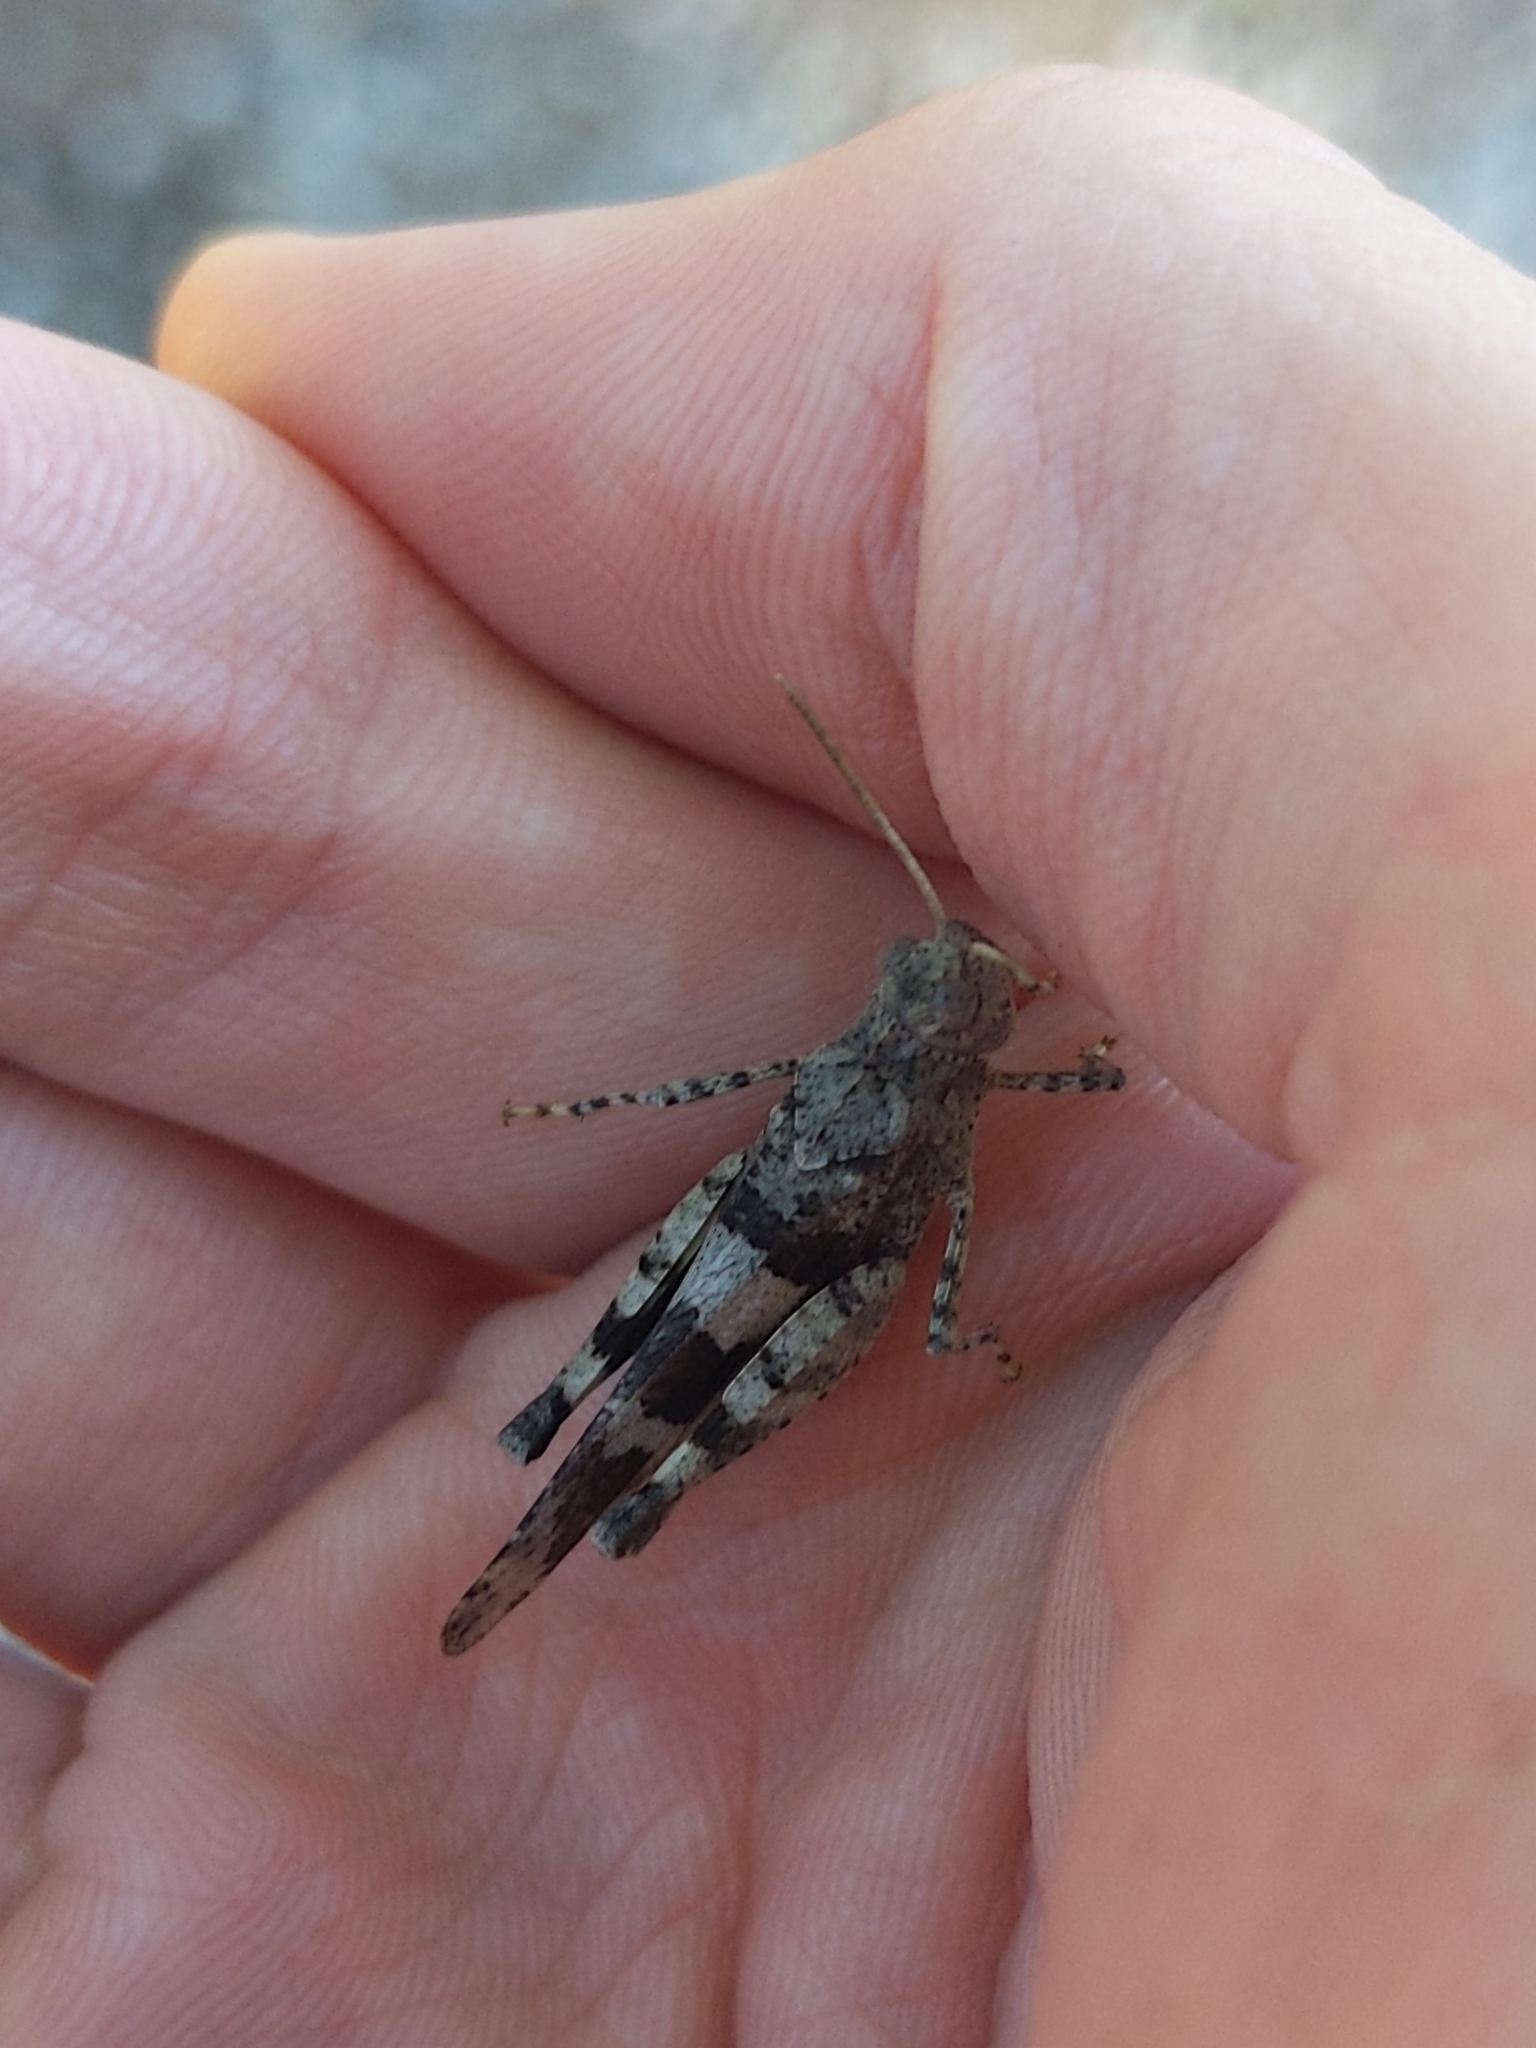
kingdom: Animalia
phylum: Arthropoda
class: Insecta
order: Orthoptera
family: Acrididae
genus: Oedipoda
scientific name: Oedipoda caerulescens
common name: Blue-winged grasshopper
